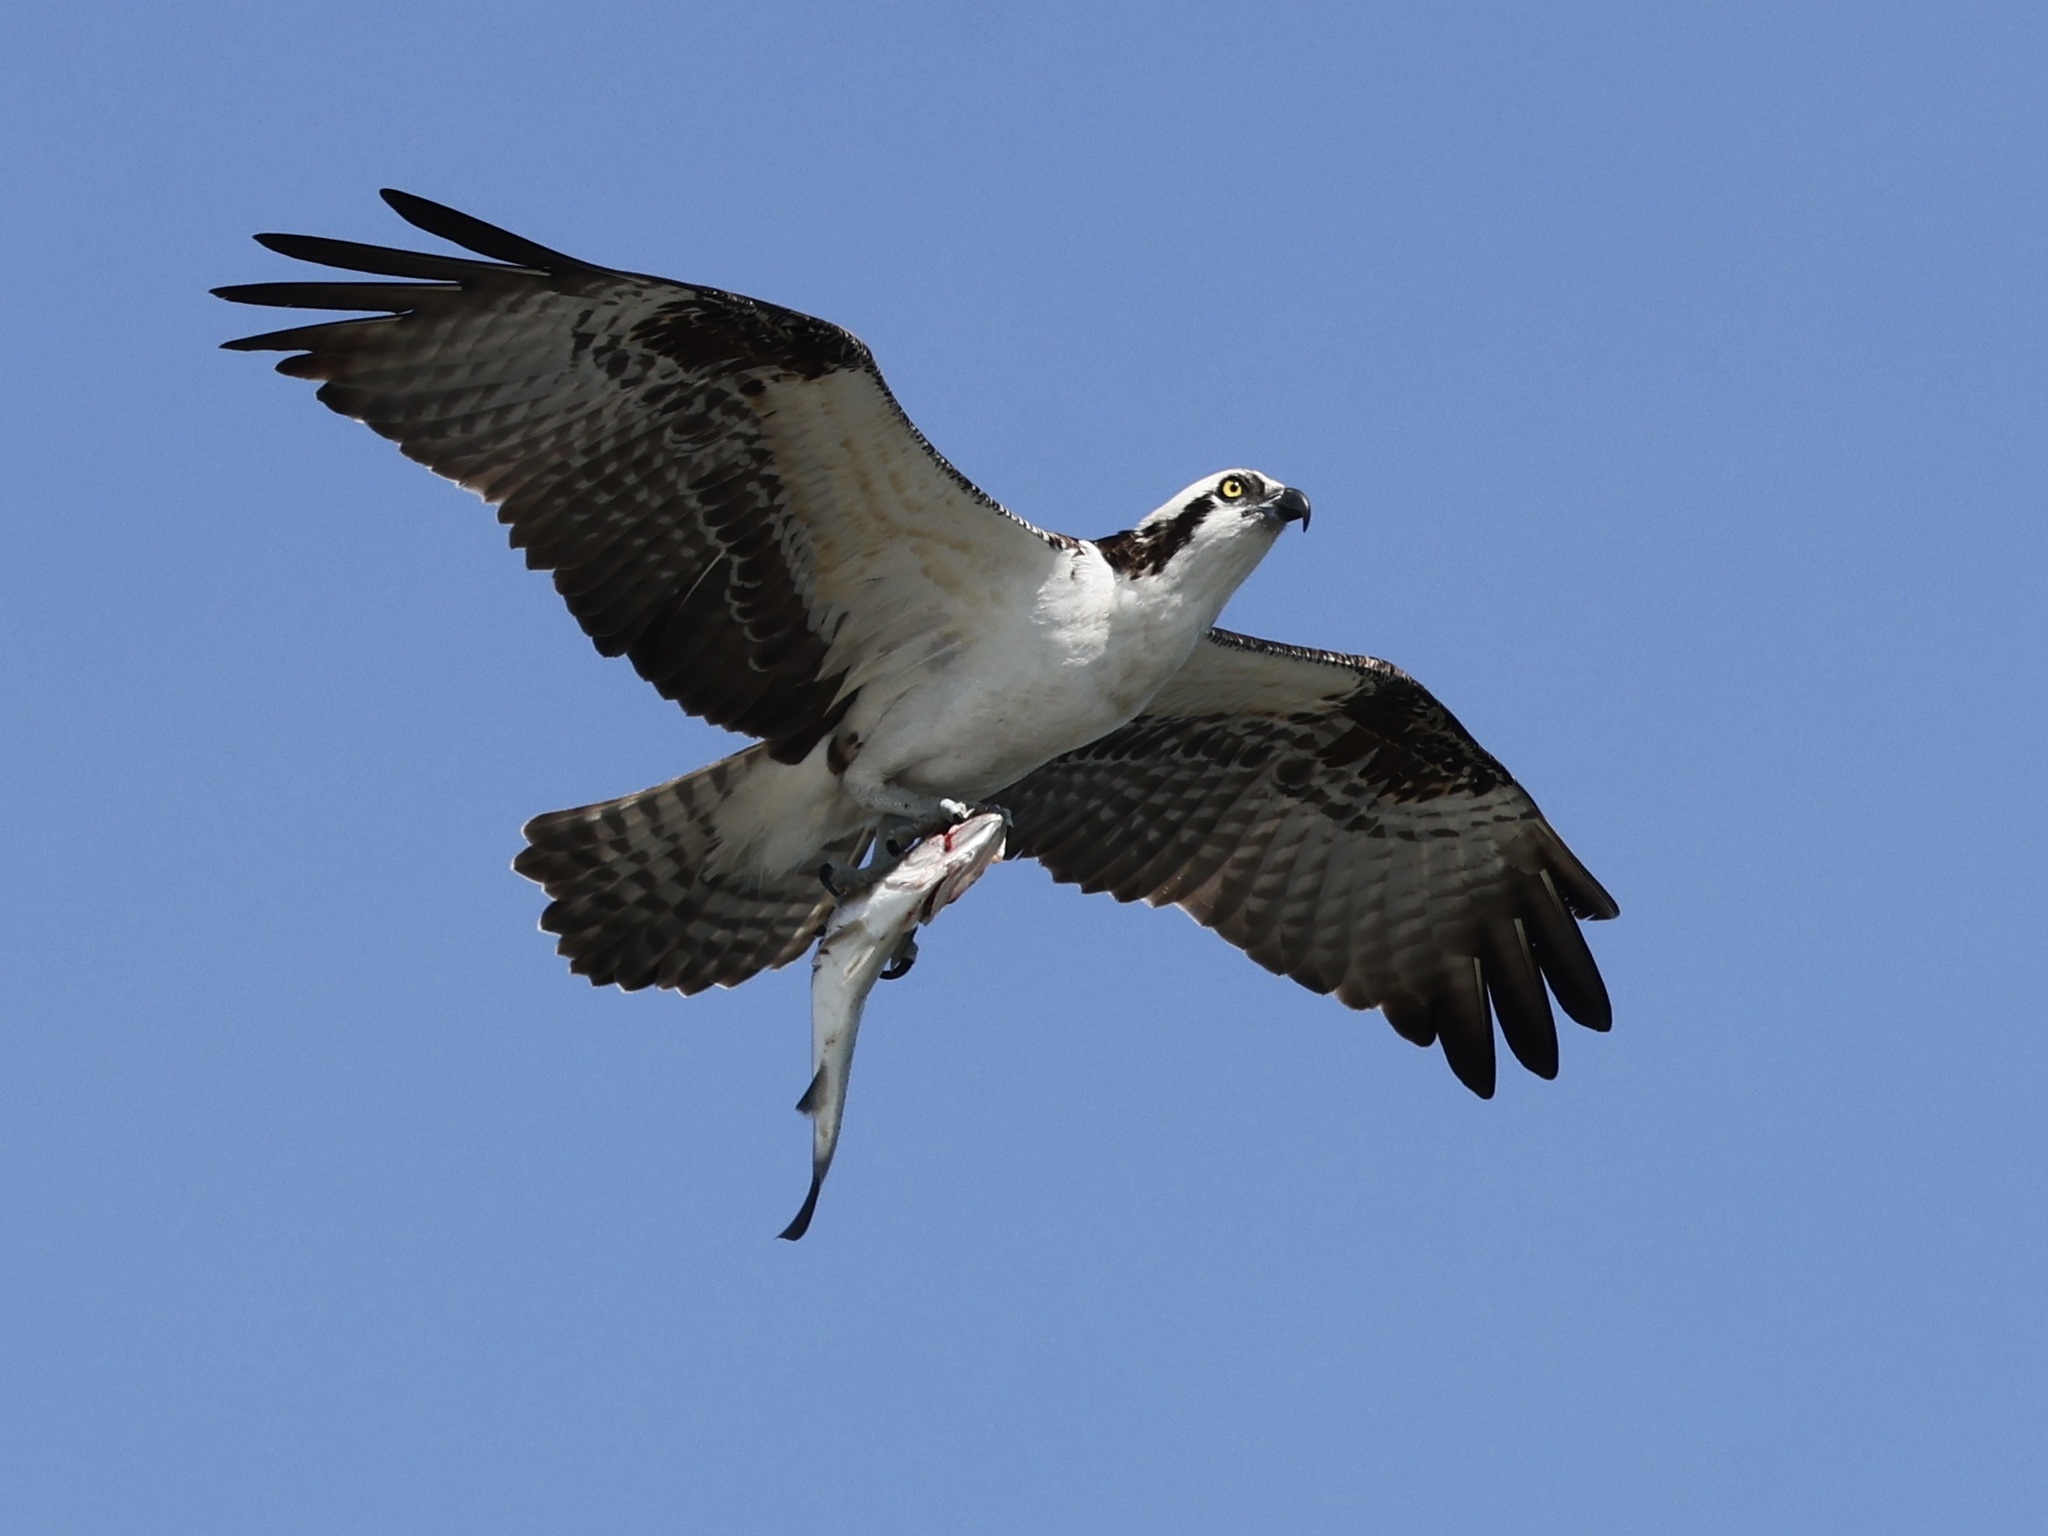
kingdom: Animalia
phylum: Chordata
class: Aves
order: Accipitriformes
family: Pandionidae
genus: Pandion
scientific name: Pandion haliaetus
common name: Osprey
